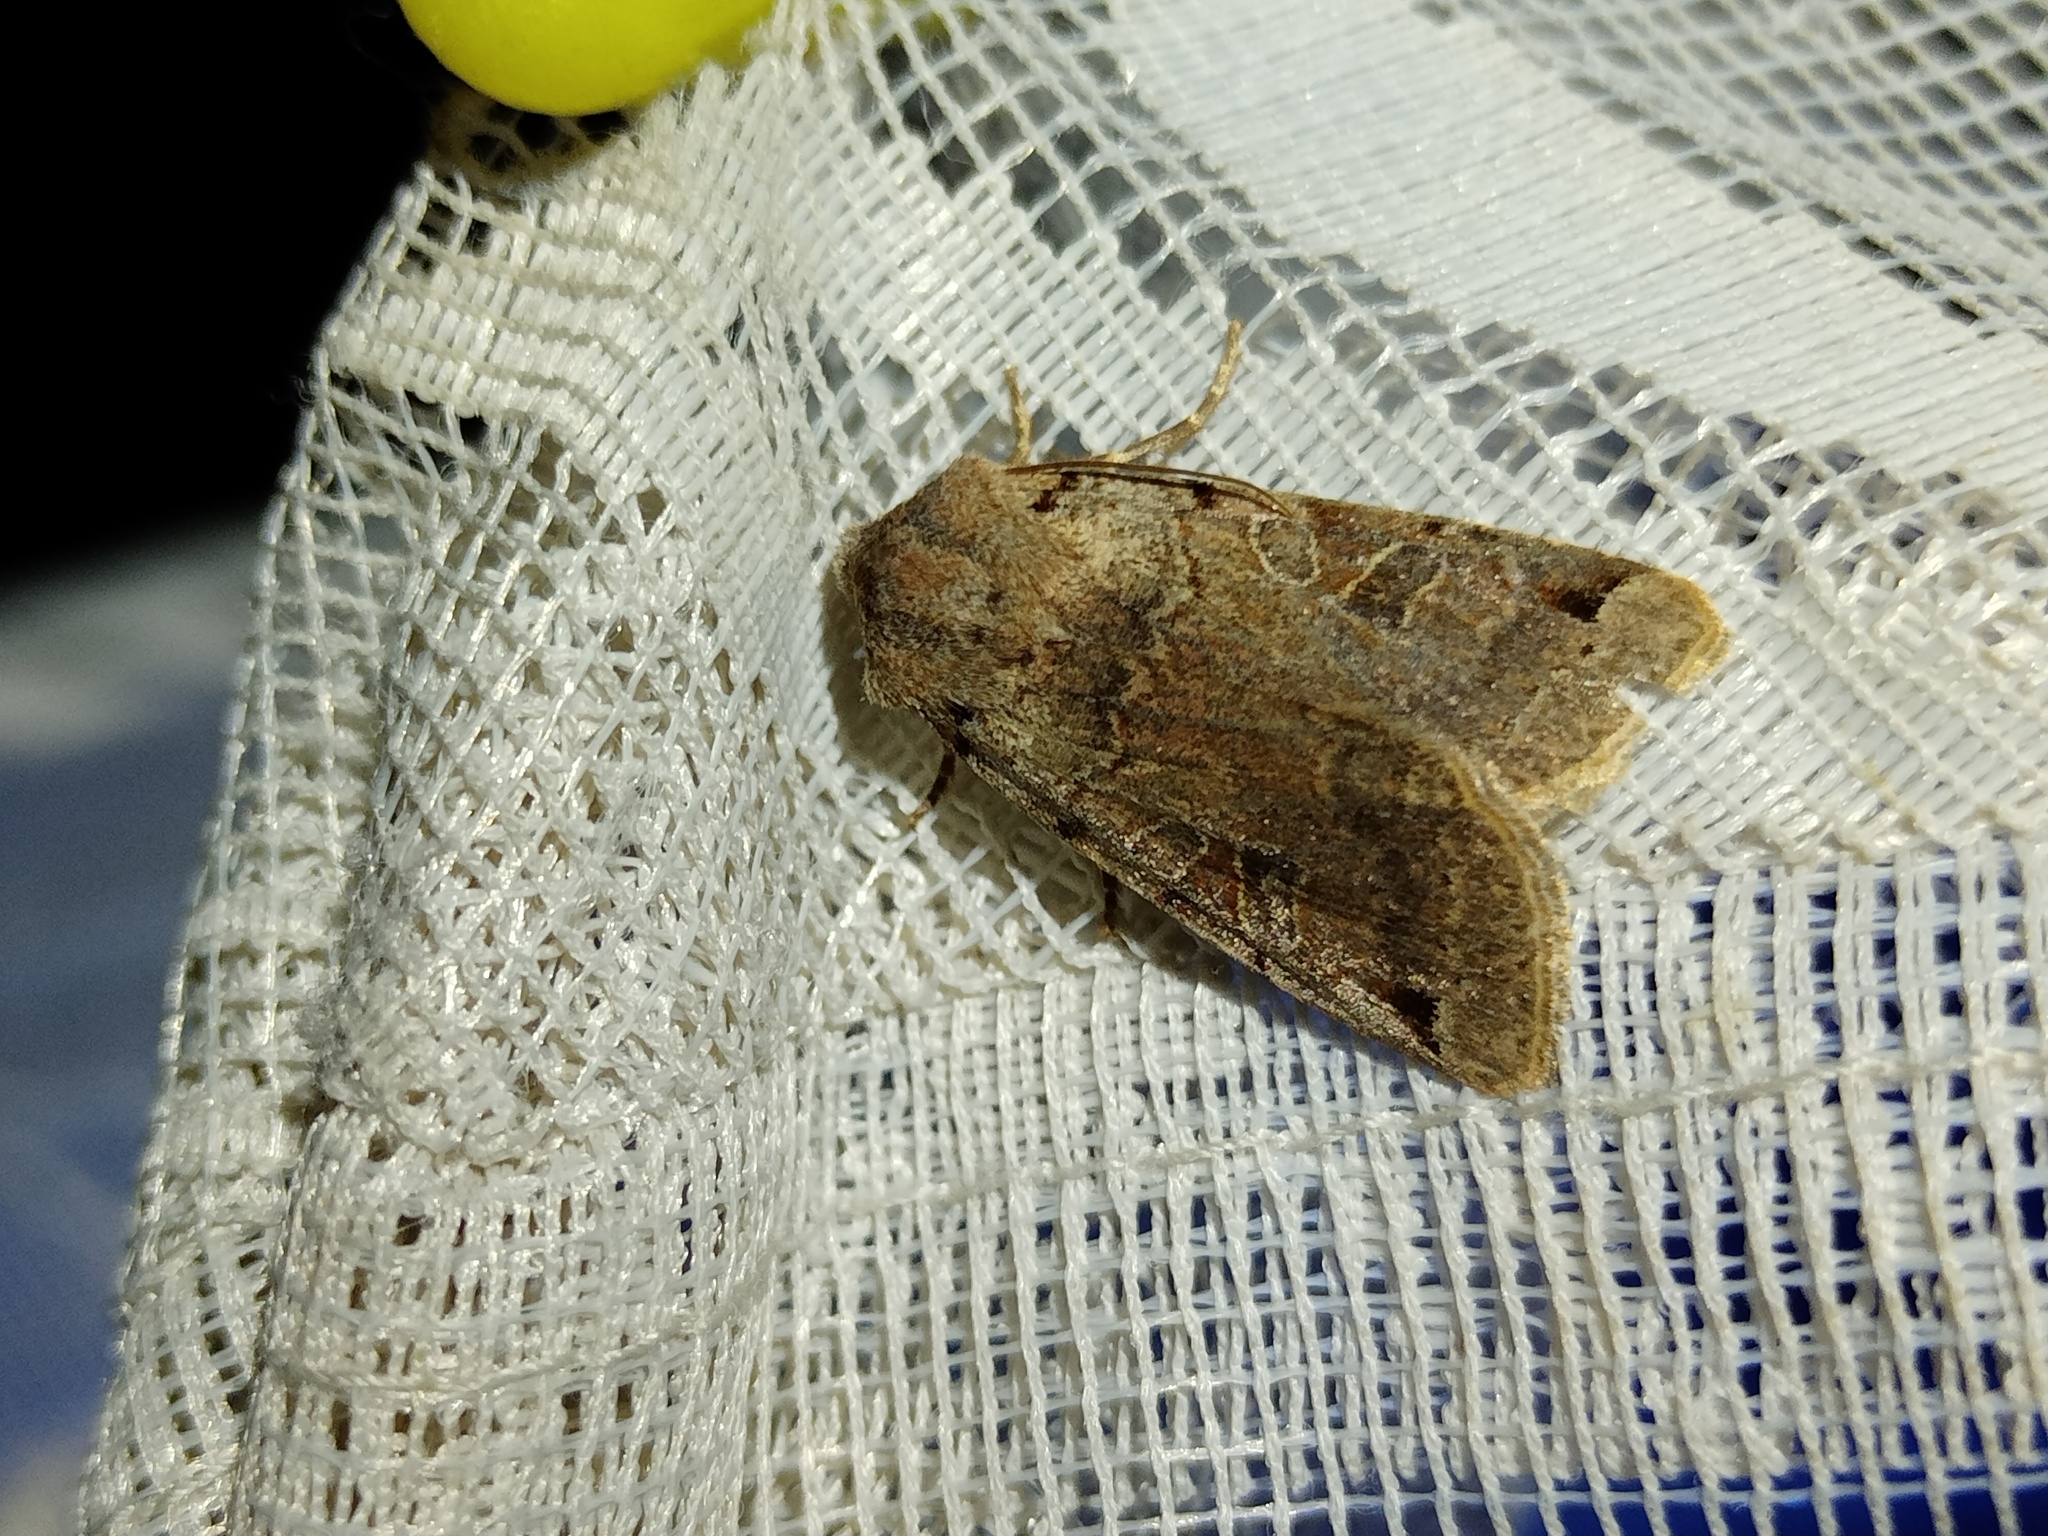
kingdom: Animalia
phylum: Arthropoda
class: Insecta
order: Lepidoptera
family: Noctuidae
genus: Agrochola
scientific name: Agrochola litura
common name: Brown-spot pinion
